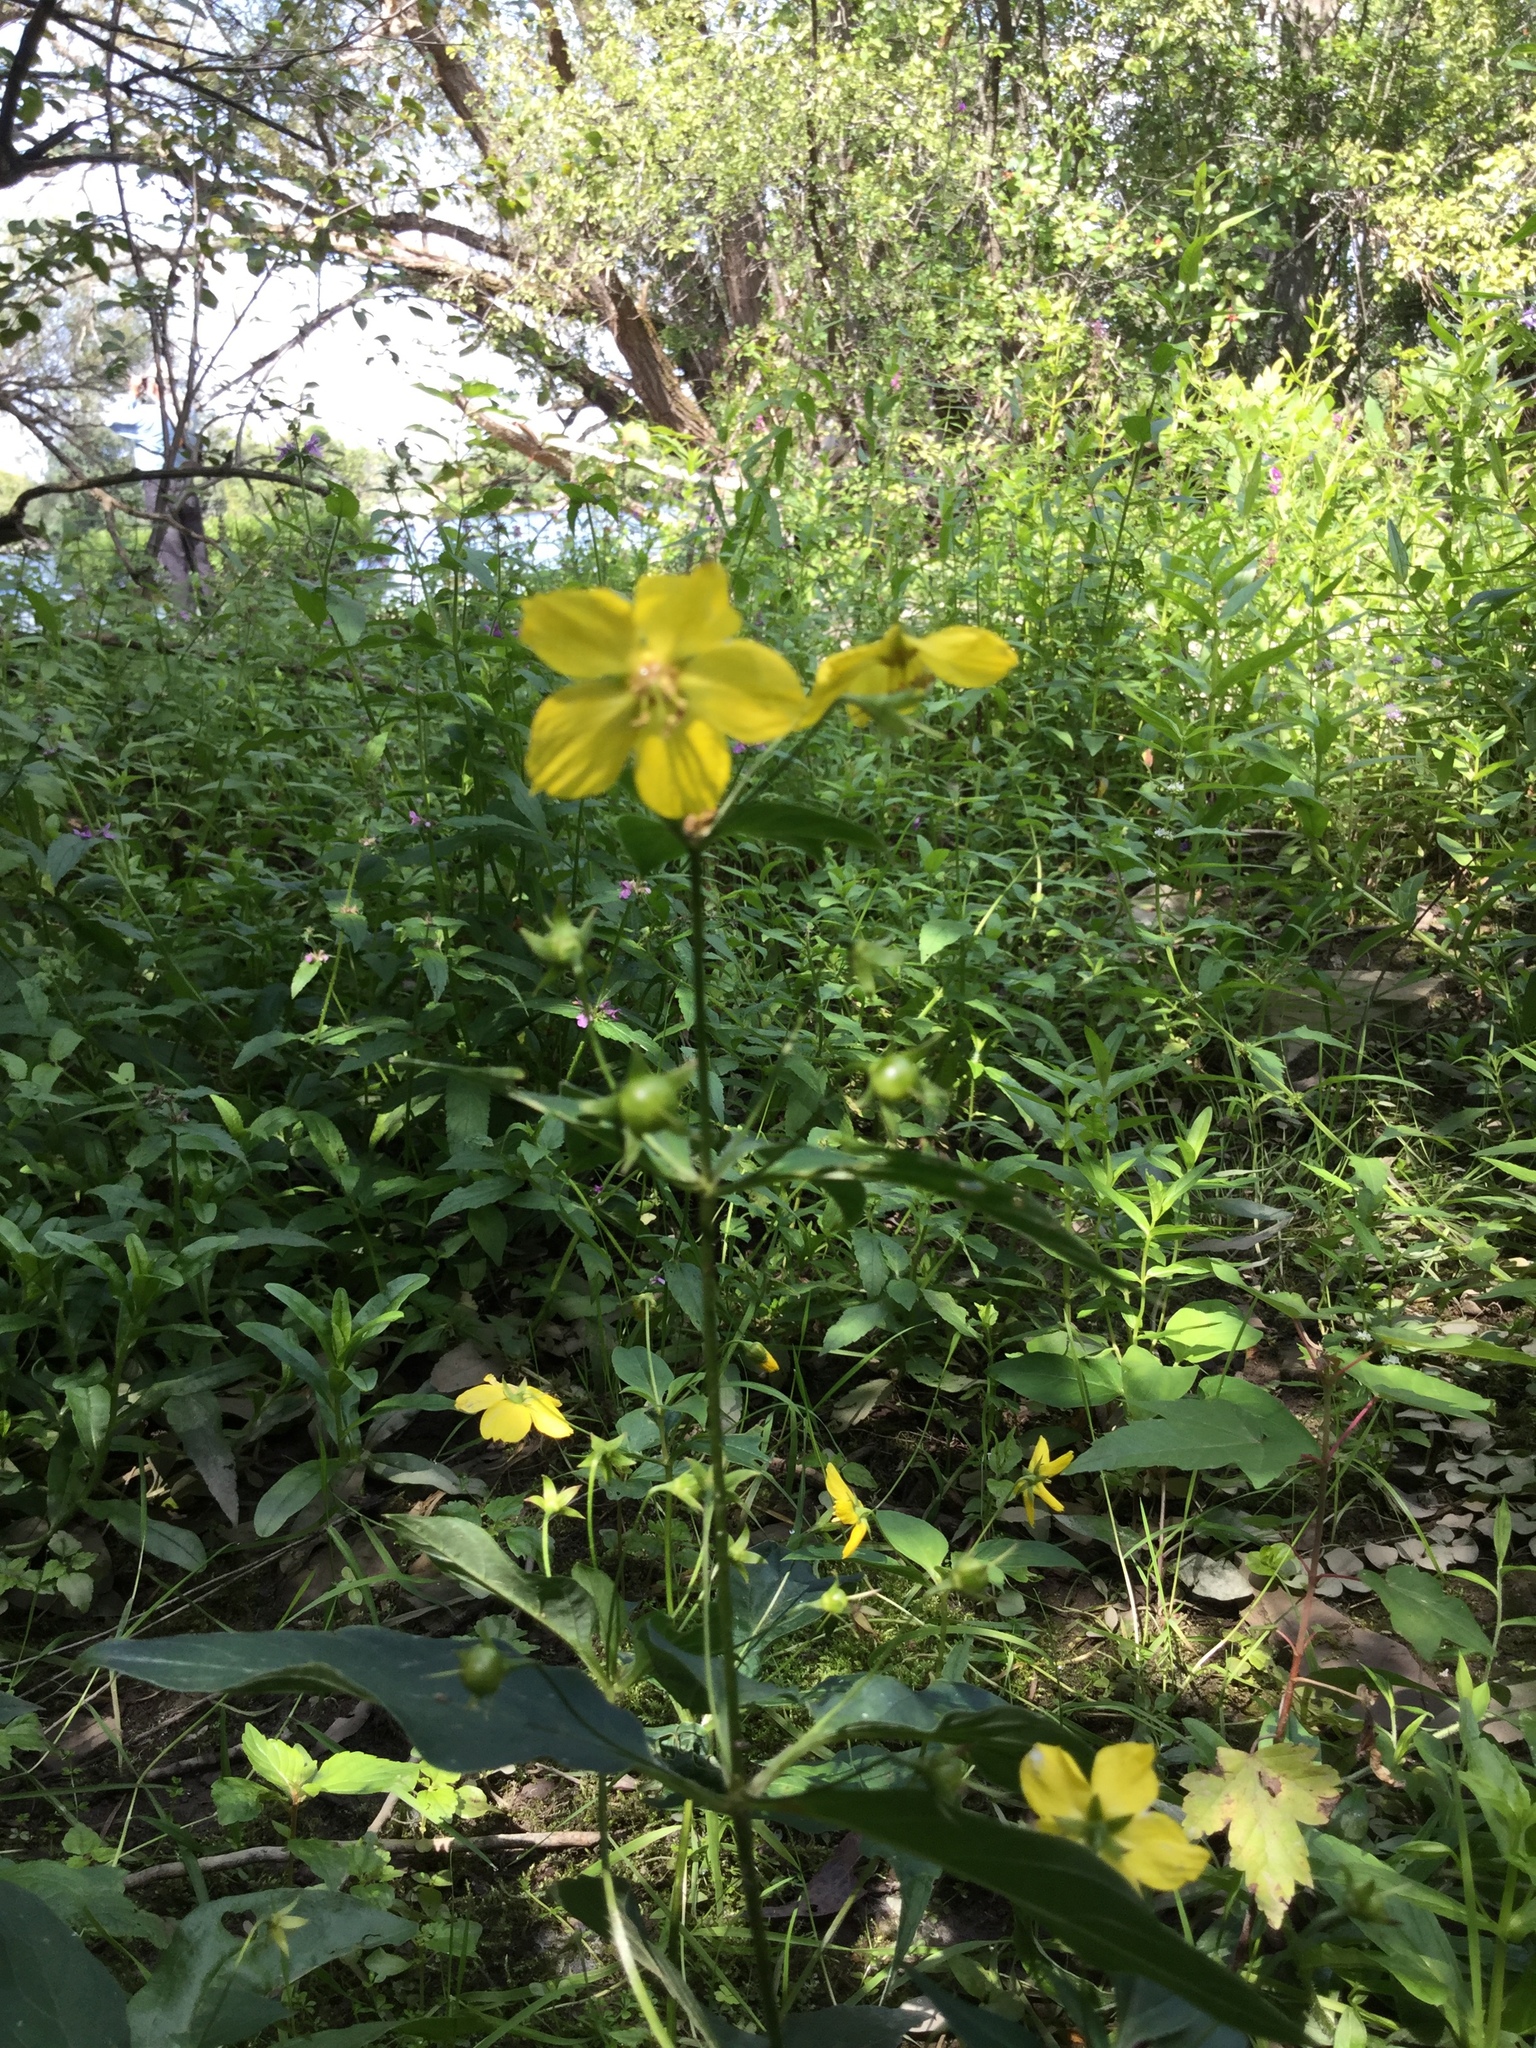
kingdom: Plantae
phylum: Tracheophyta
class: Magnoliopsida
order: Ericales
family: Primulaceae
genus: Lysimachia
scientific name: Lysimachia ciliata
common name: Fringed loosestrife
